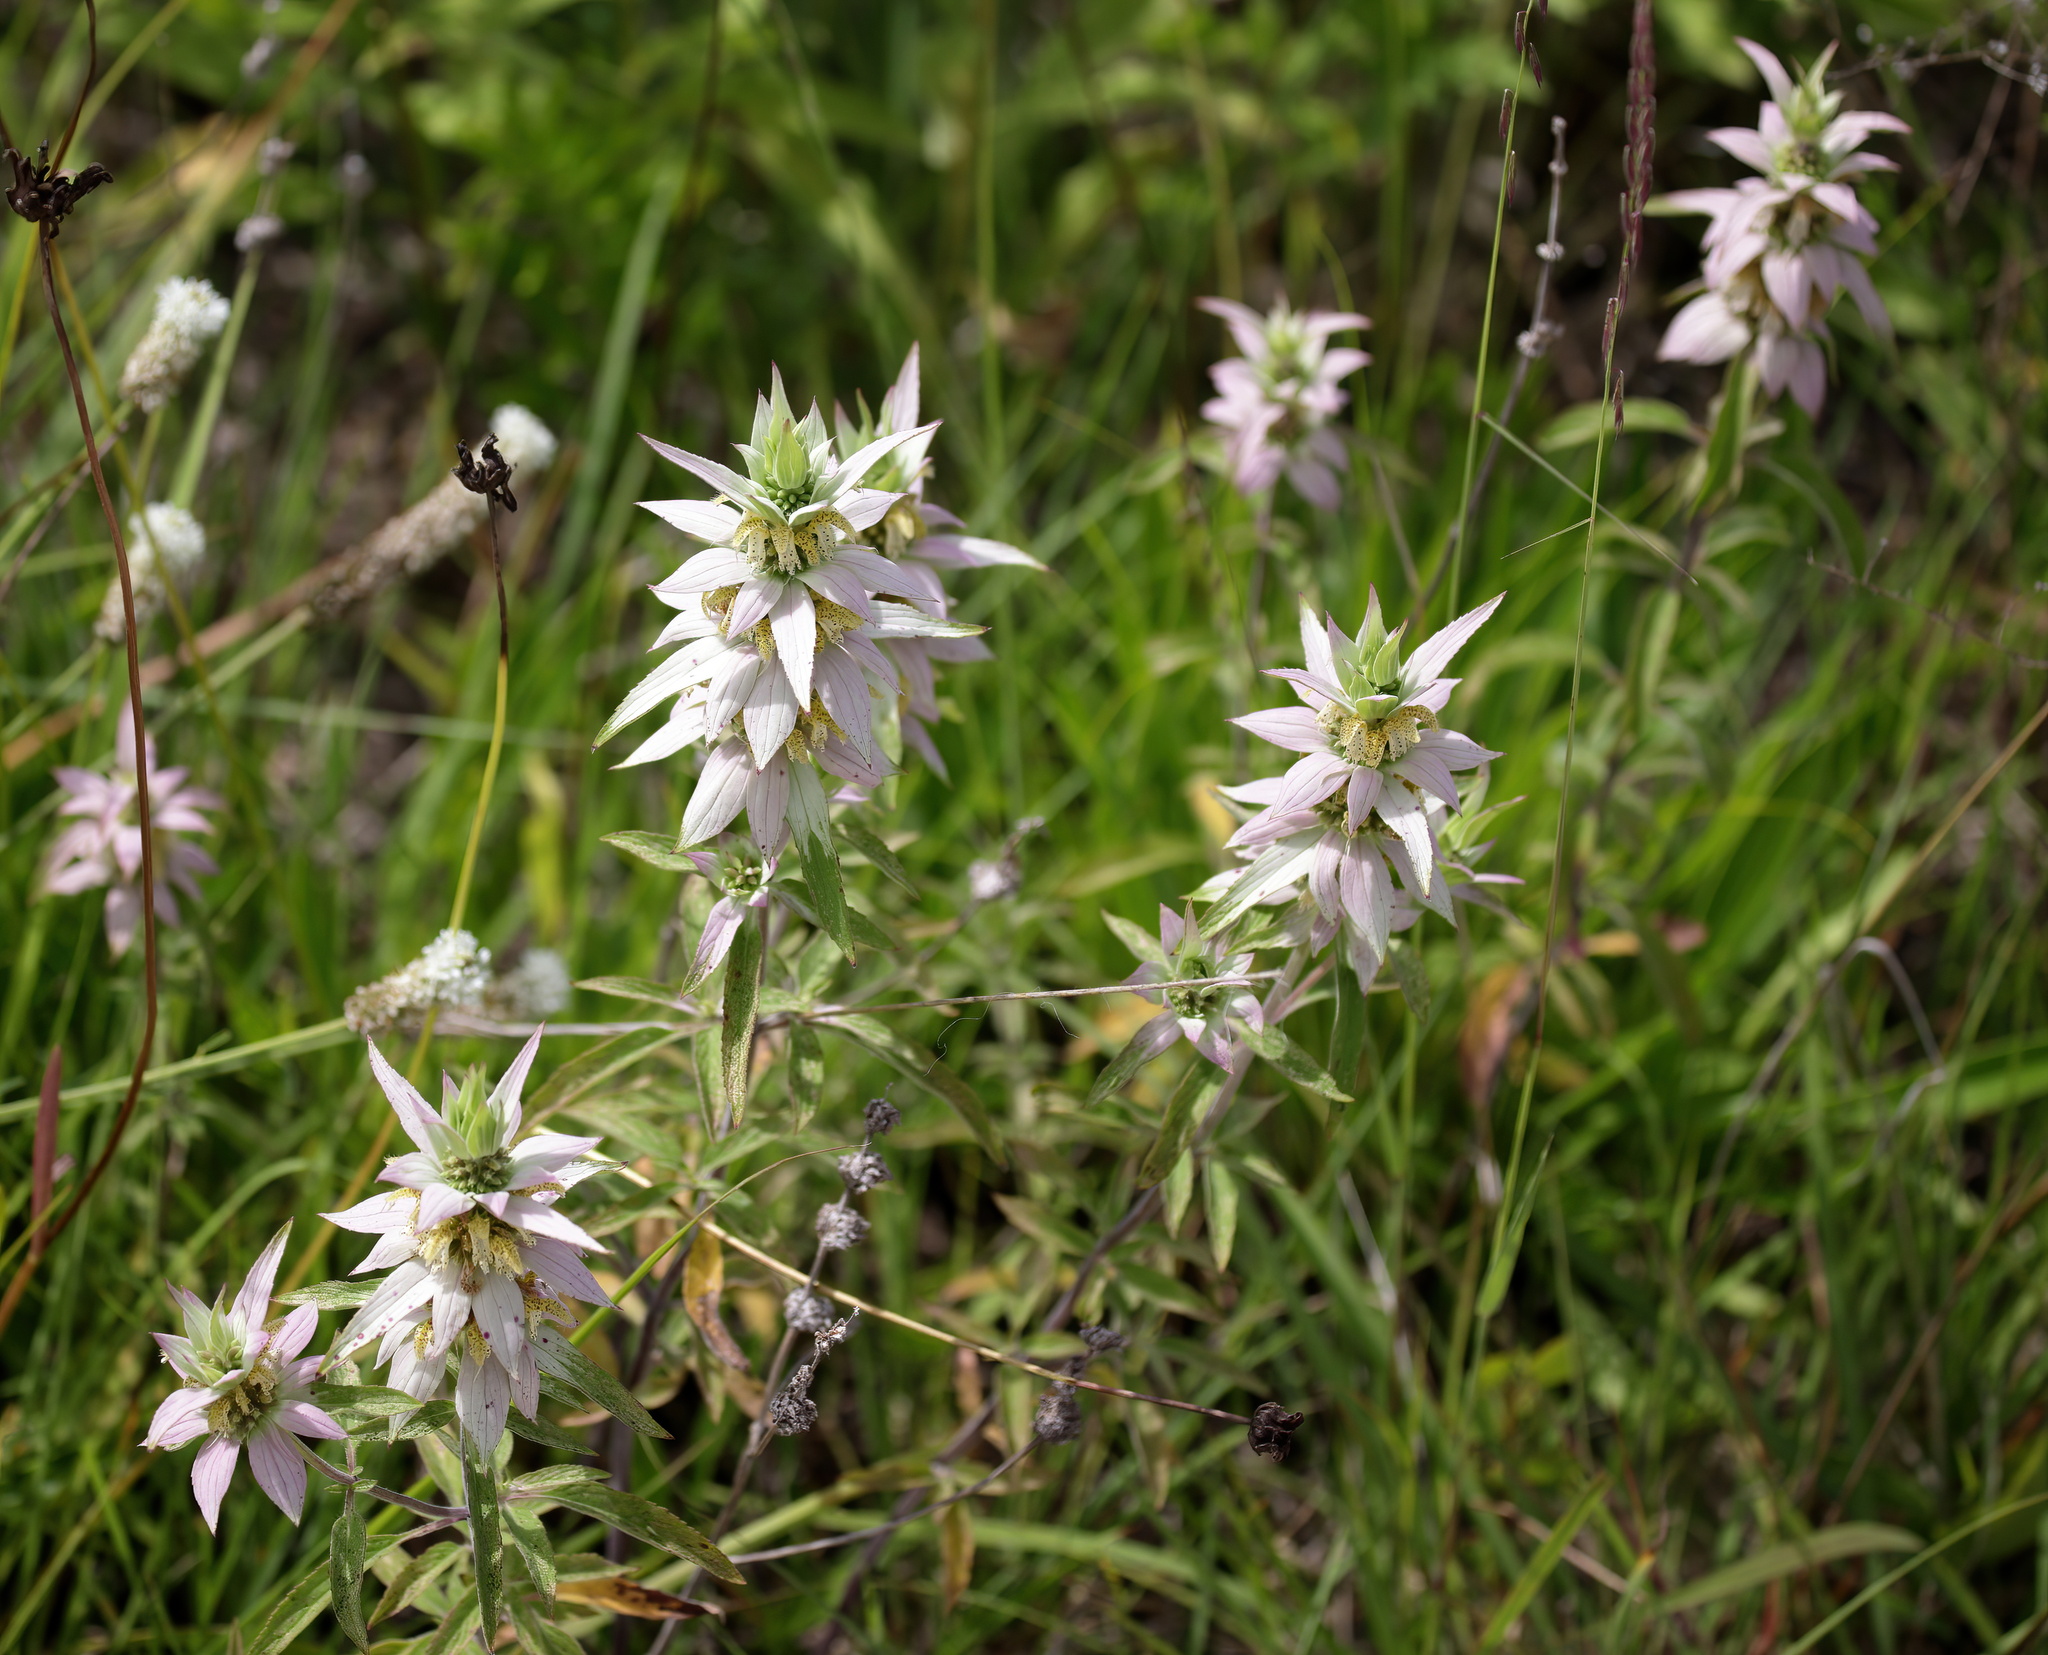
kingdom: Plantae
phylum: Tracheophyta
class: Magnoliopsida
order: Lamiales
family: Lamiaceae
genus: Monarda
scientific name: Monarda punctata
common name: Dotted monarda
